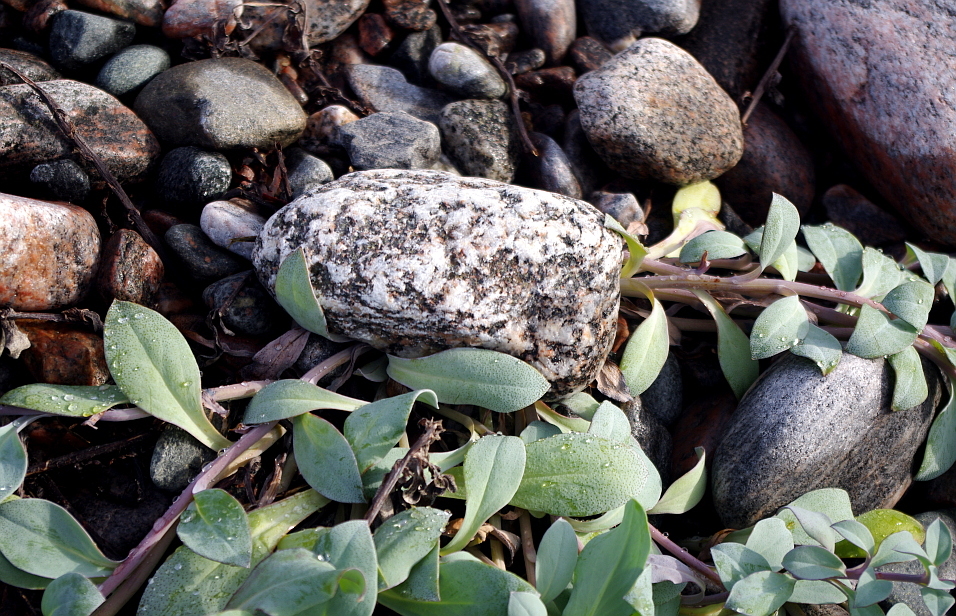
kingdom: Plantae
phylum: Tracheophyta
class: Magnoliopsida
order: Boraginales
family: Boraginaceae
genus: Mertensia
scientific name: Mertensia maritima
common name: Oysterplant
